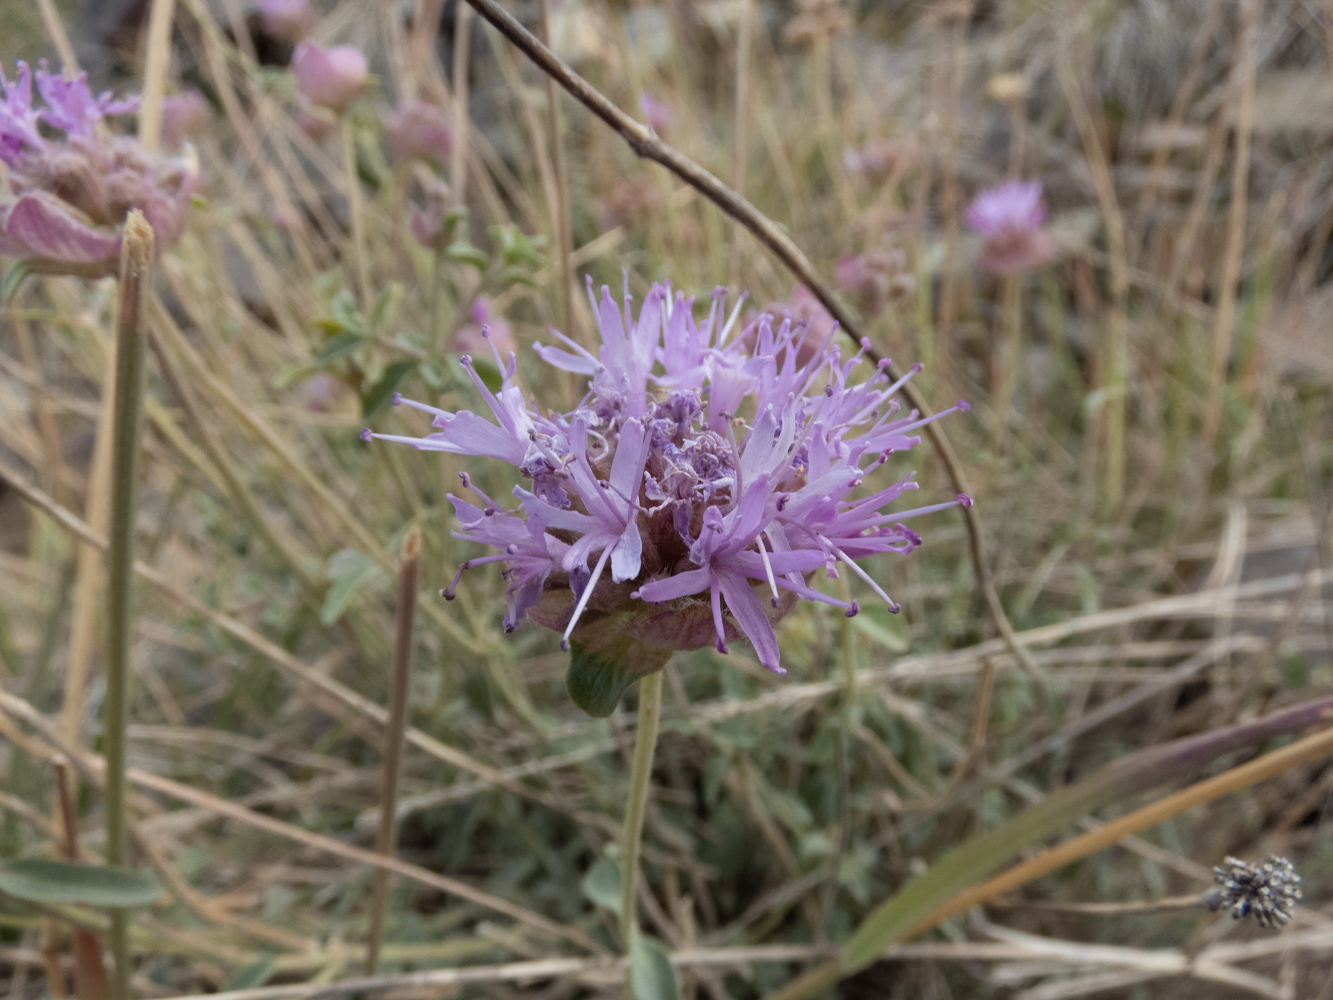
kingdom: Plantae
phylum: Tracheophyta
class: Magnoliopsida
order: Lamiales
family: Lamiaceae
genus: Monardella
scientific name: Monardella odoratissima
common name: Pacific monardella
